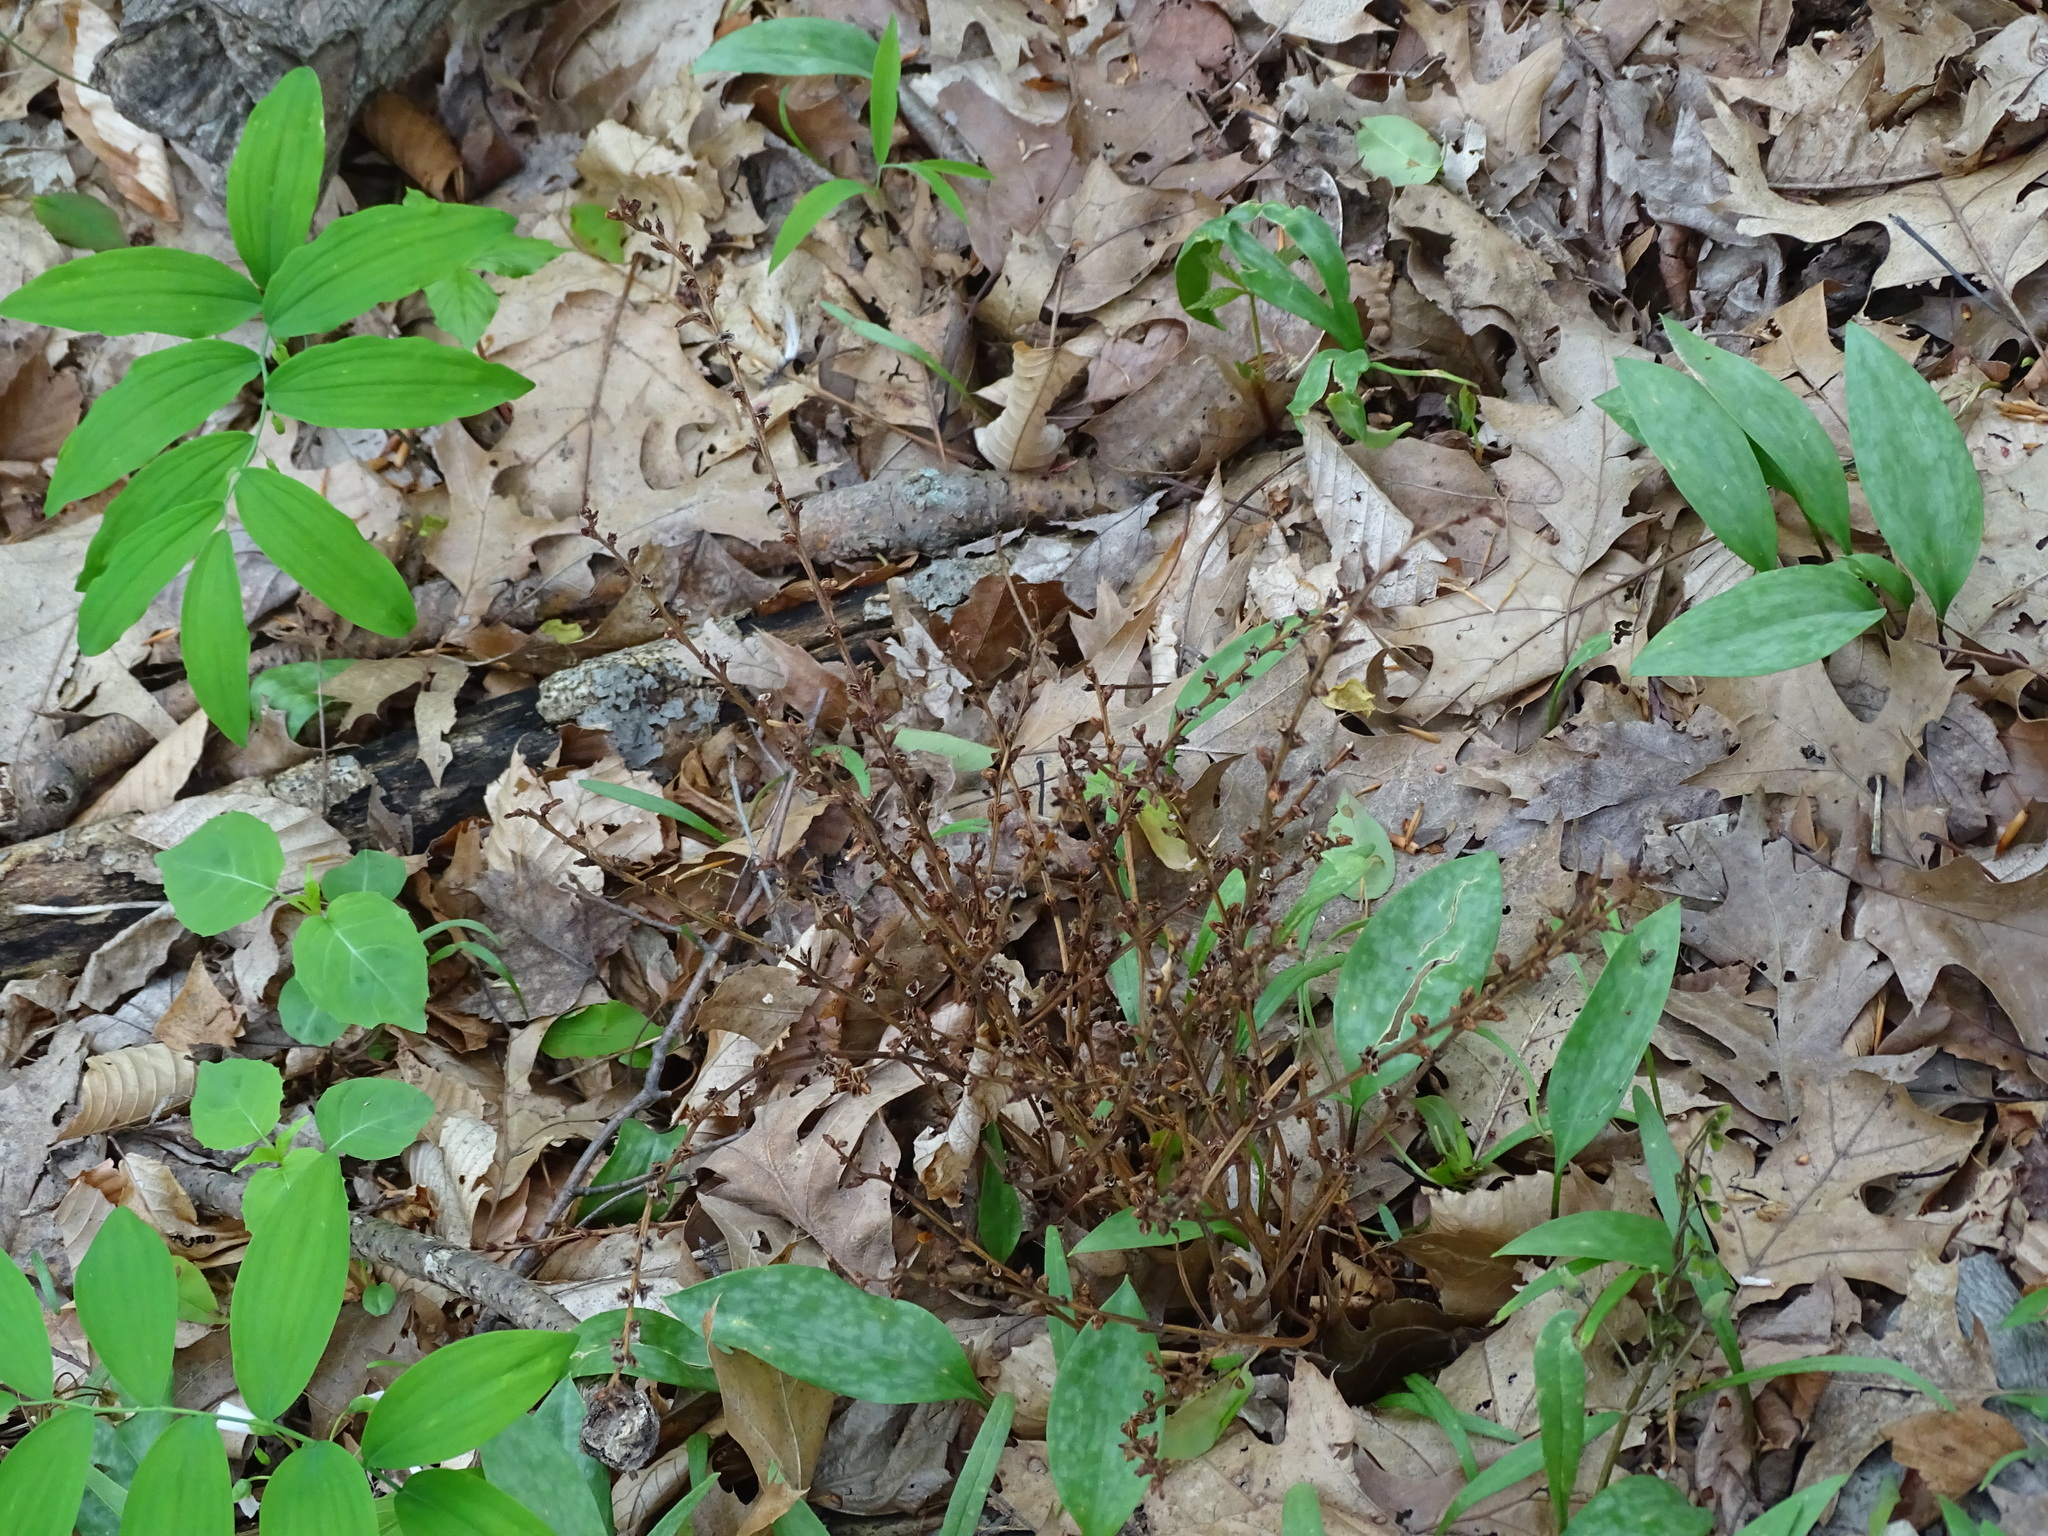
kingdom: Plantae
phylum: Tracheophyta
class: Magnoliopsida
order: Lamiales
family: Orobanchaceae
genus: Epifagus
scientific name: Epifagus virginiana
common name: Beechdrops
